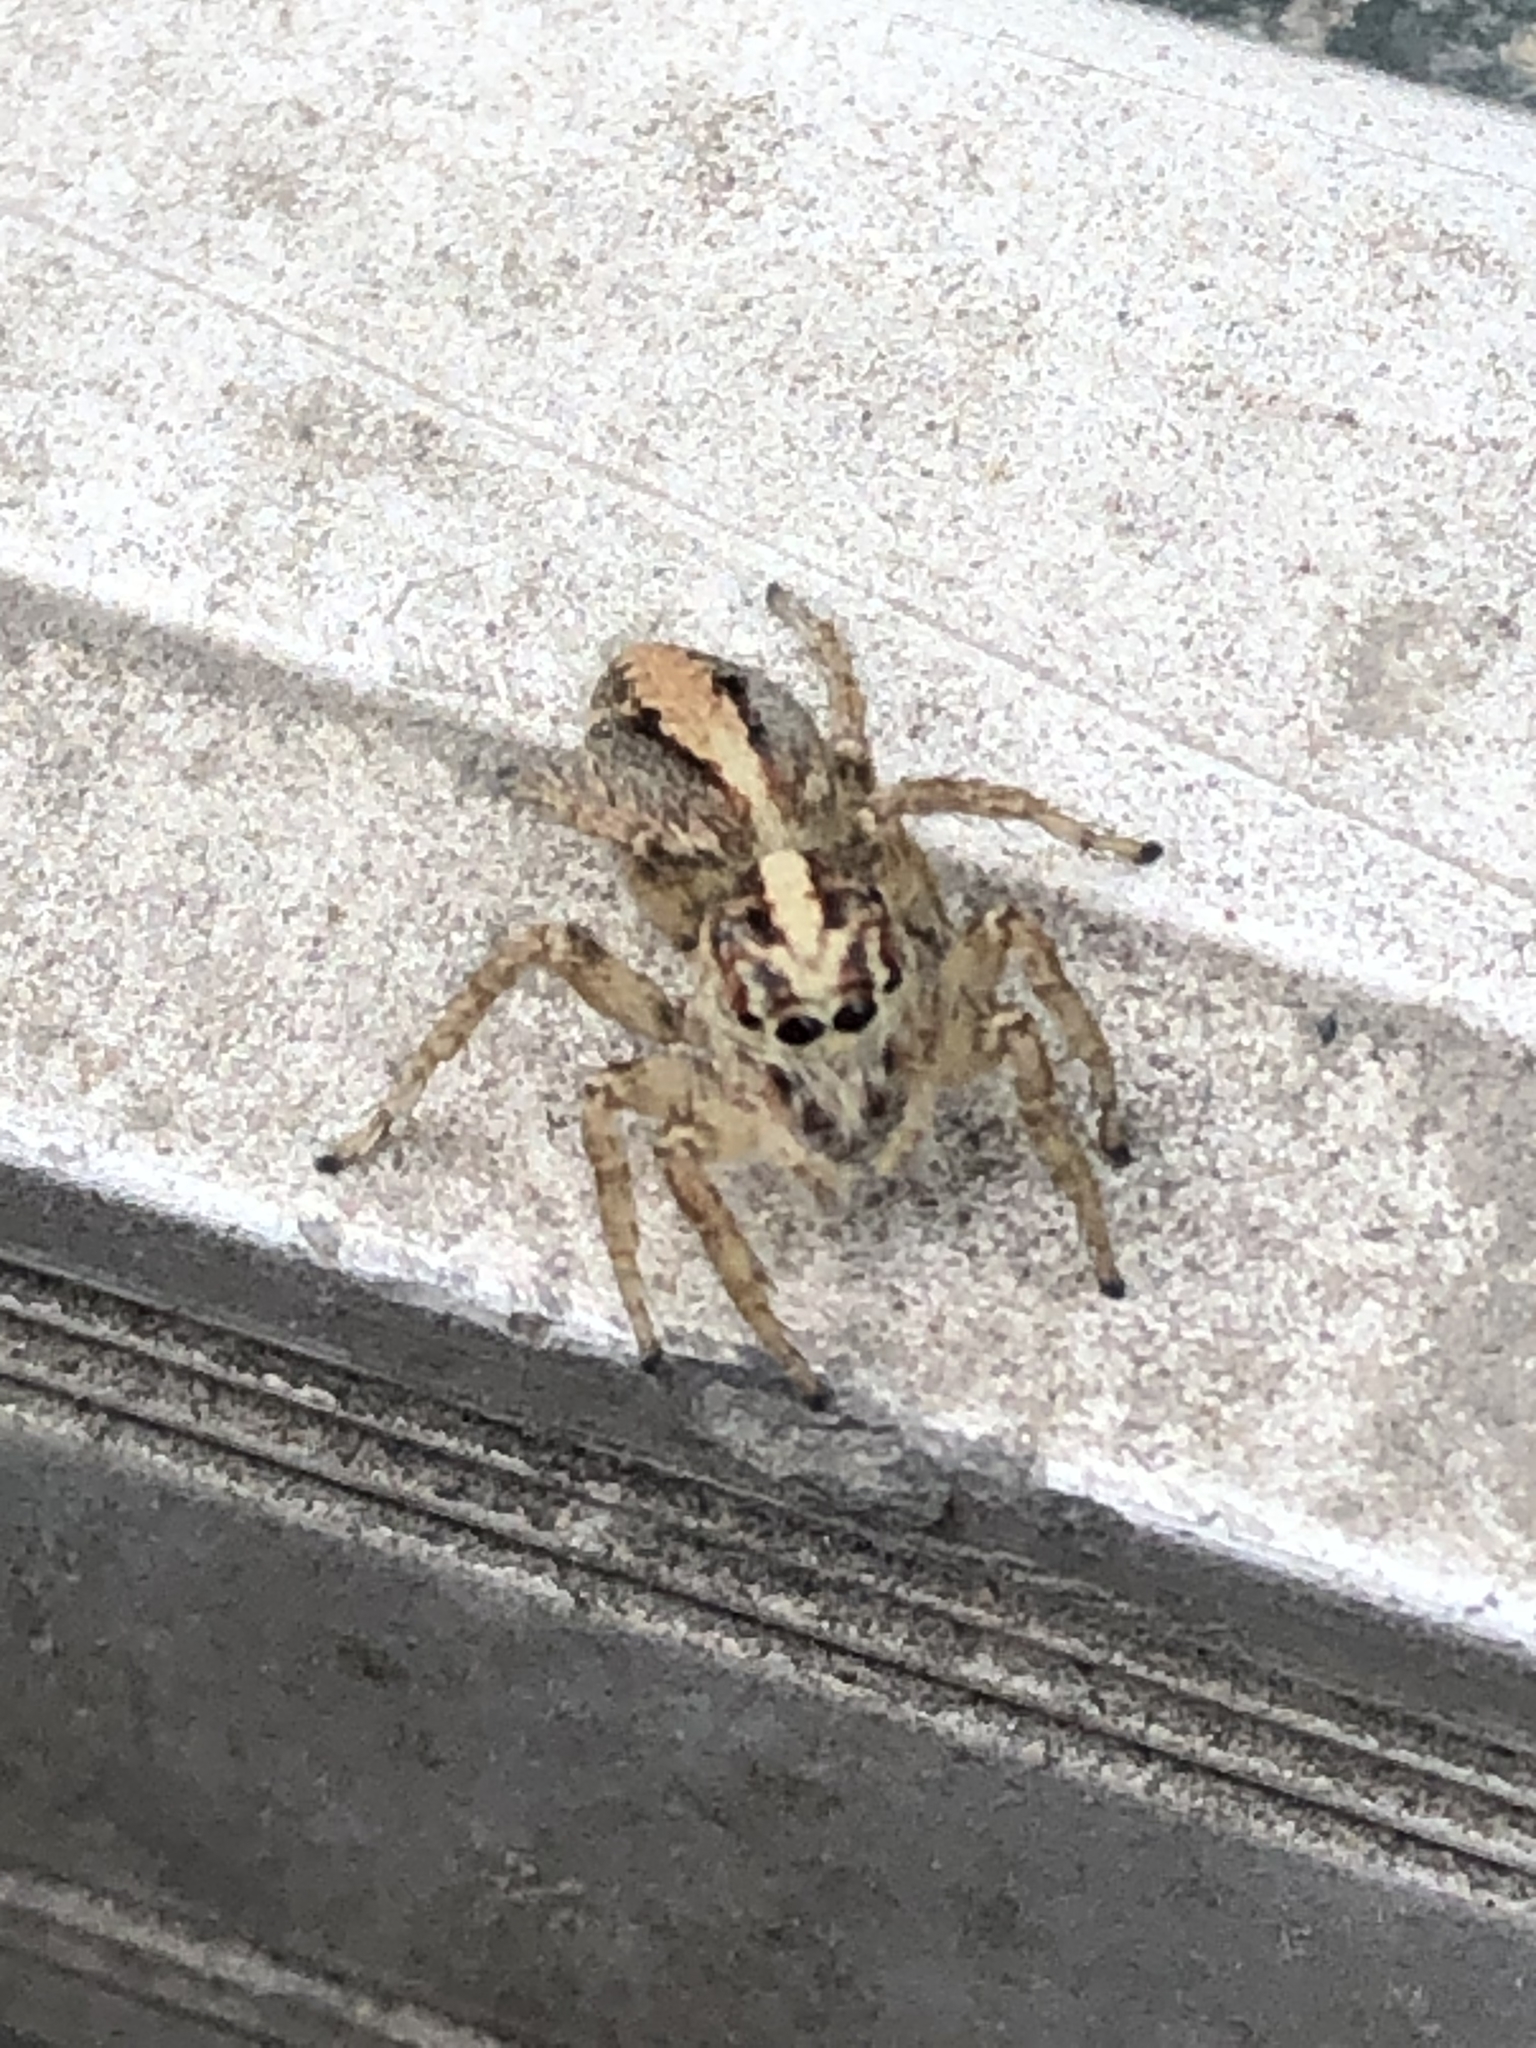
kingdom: Animalia
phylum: Arthropoda
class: Arachnida
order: Araneae
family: Salticidae
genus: Frigga
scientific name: Frigga crocuta
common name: Jumping spiders
